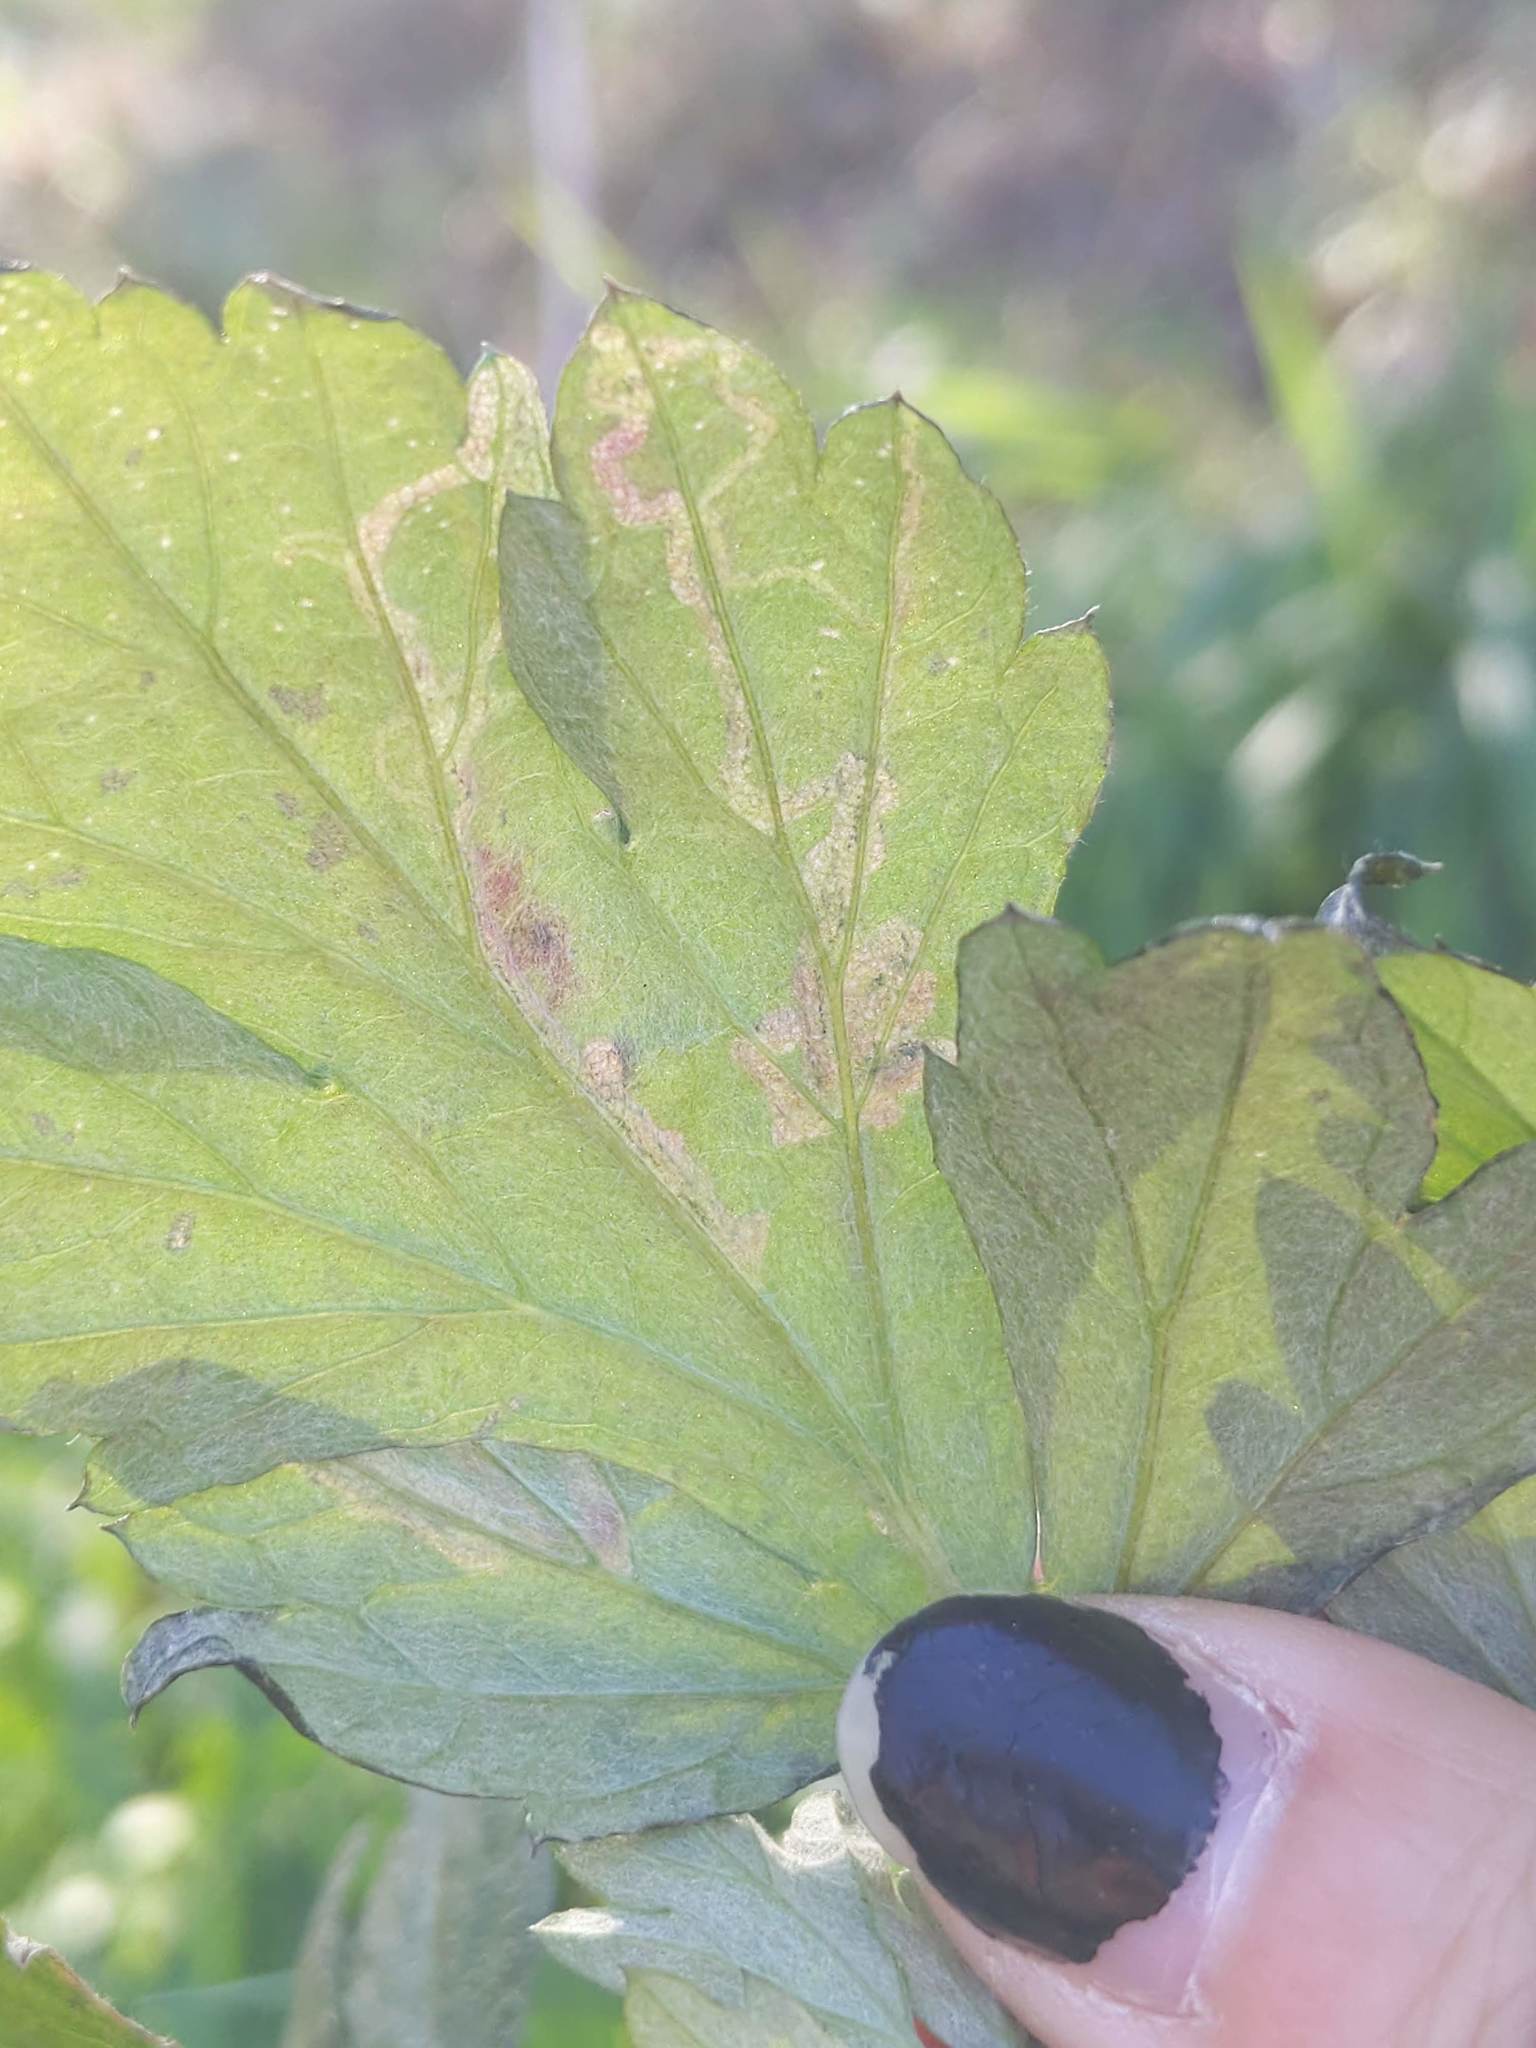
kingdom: Animalia
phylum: Arthropoda
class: Insecta
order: Diptera
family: Agromyzidae
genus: Liriomyza
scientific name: Liriomyza ptarmicae
